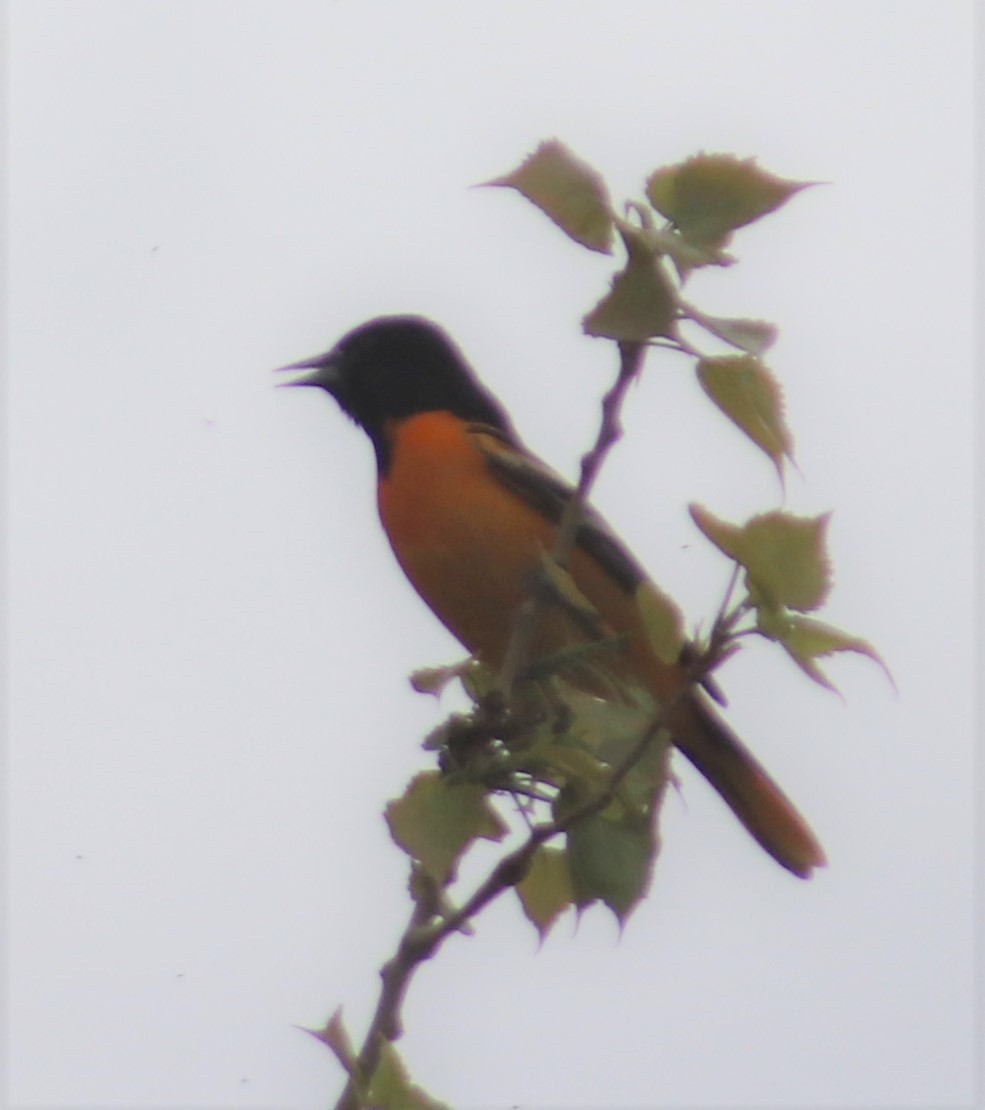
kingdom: Animalia
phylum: Chordata
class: Aves
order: Passeriformes
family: Icteridae
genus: Icterus
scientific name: Icterus galbula
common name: Baltimore oriole
